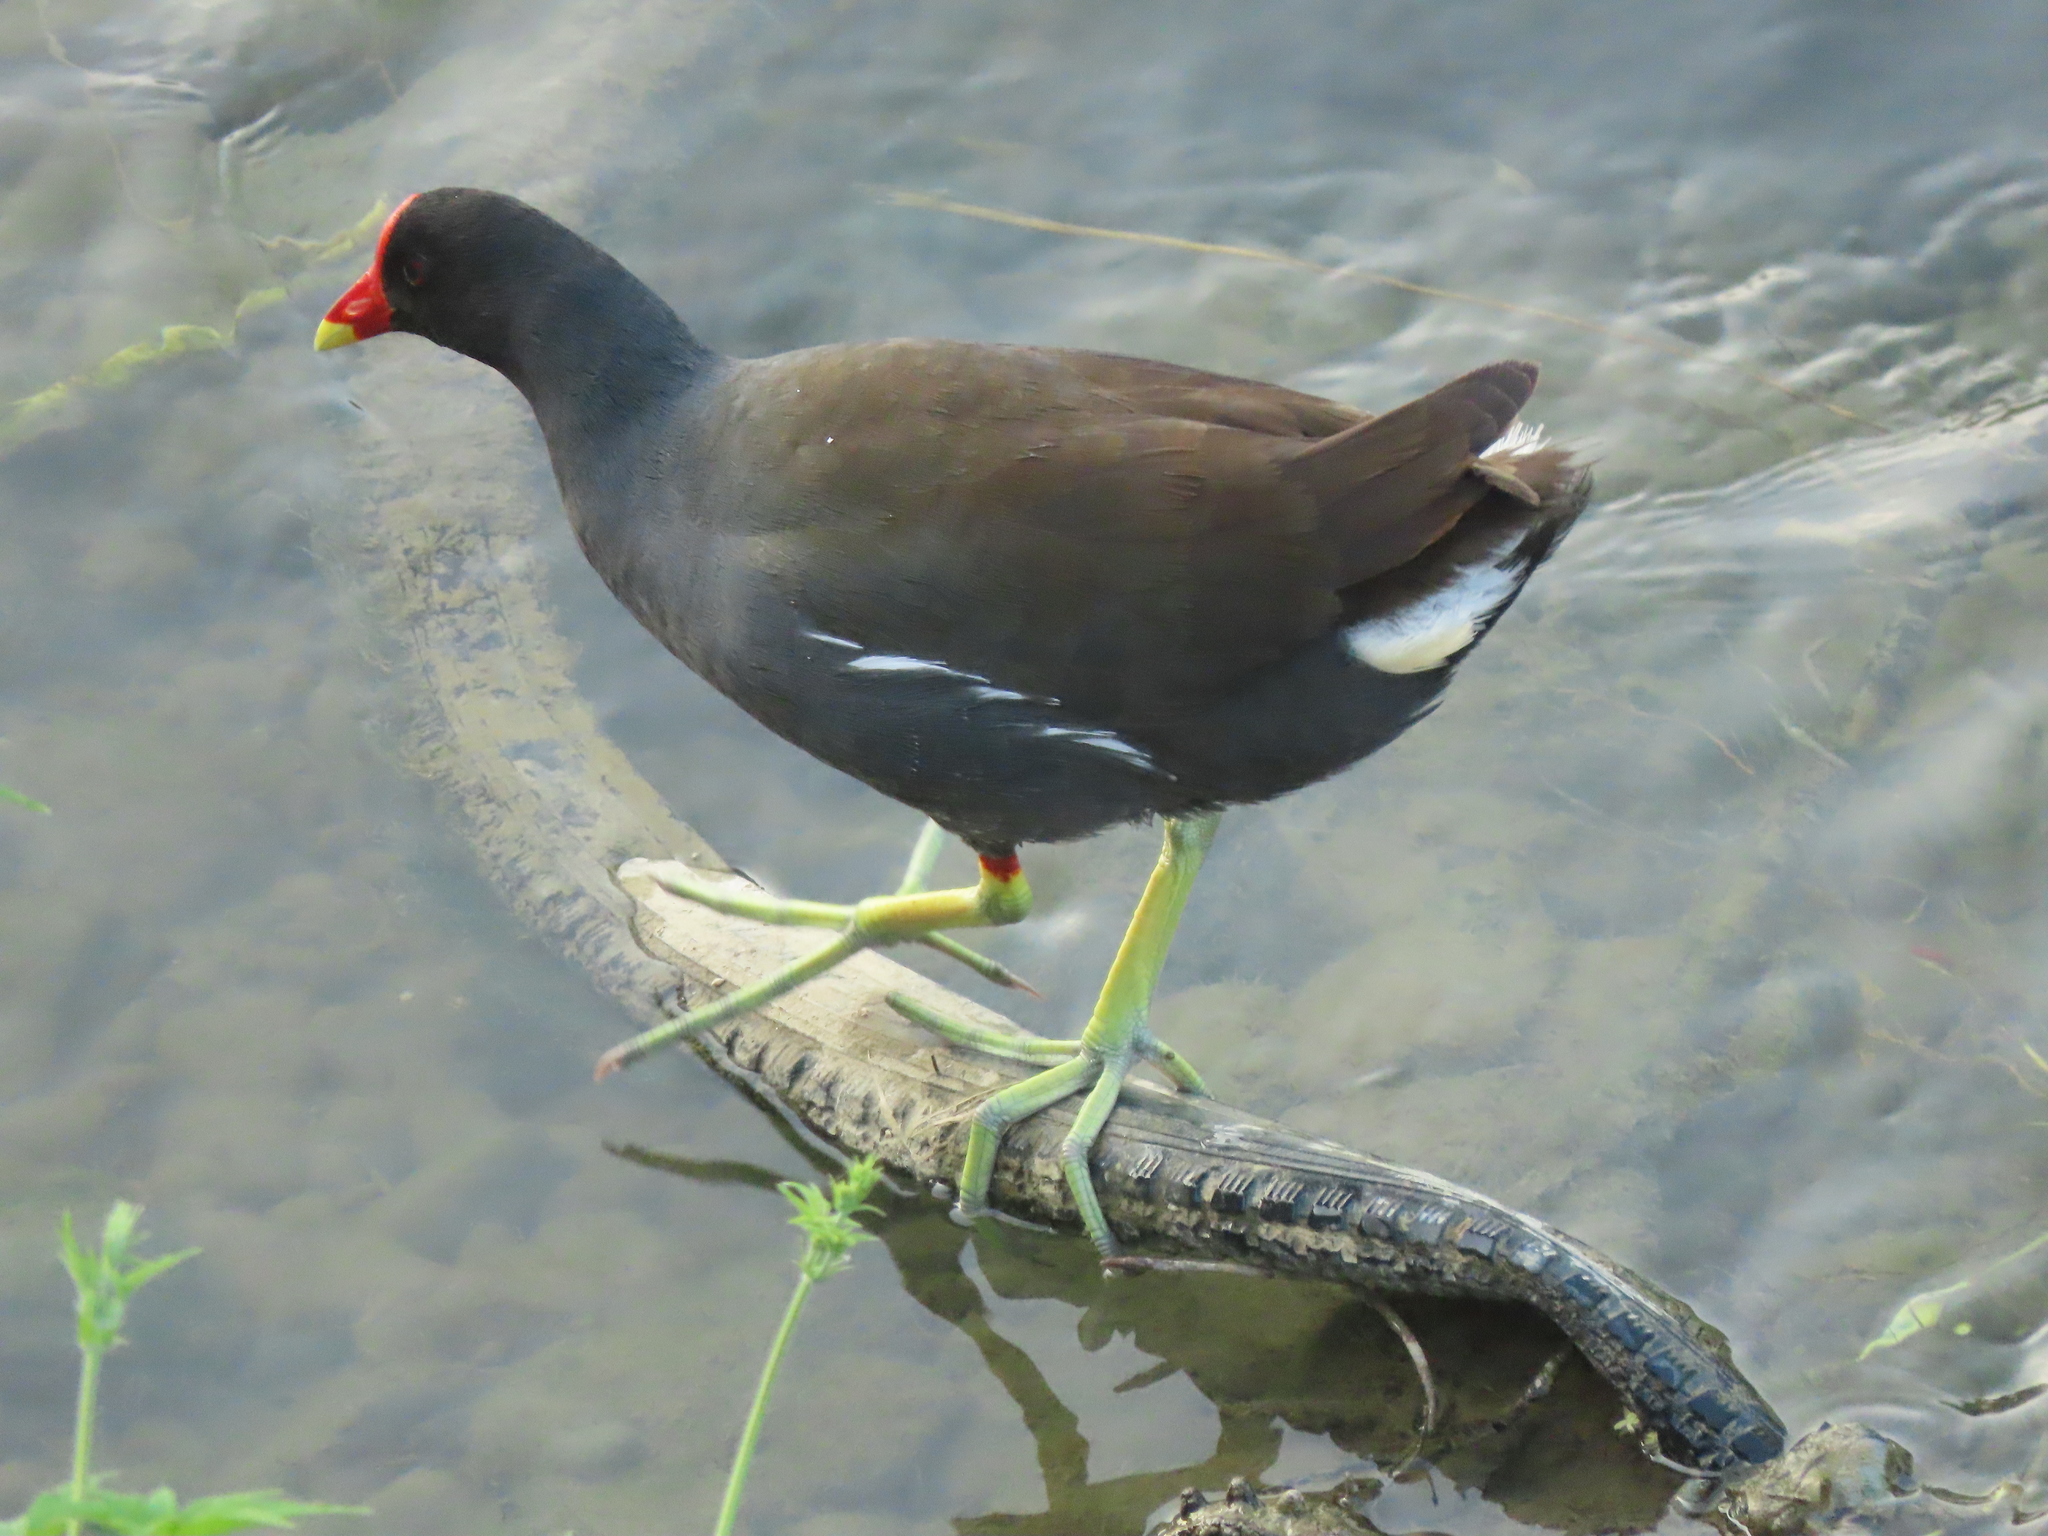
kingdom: Animalia
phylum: Chordata
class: Aves
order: Gruiformes
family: Rallidae
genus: Gallinula
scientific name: Gallinula chloropus
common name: Common moorhen
